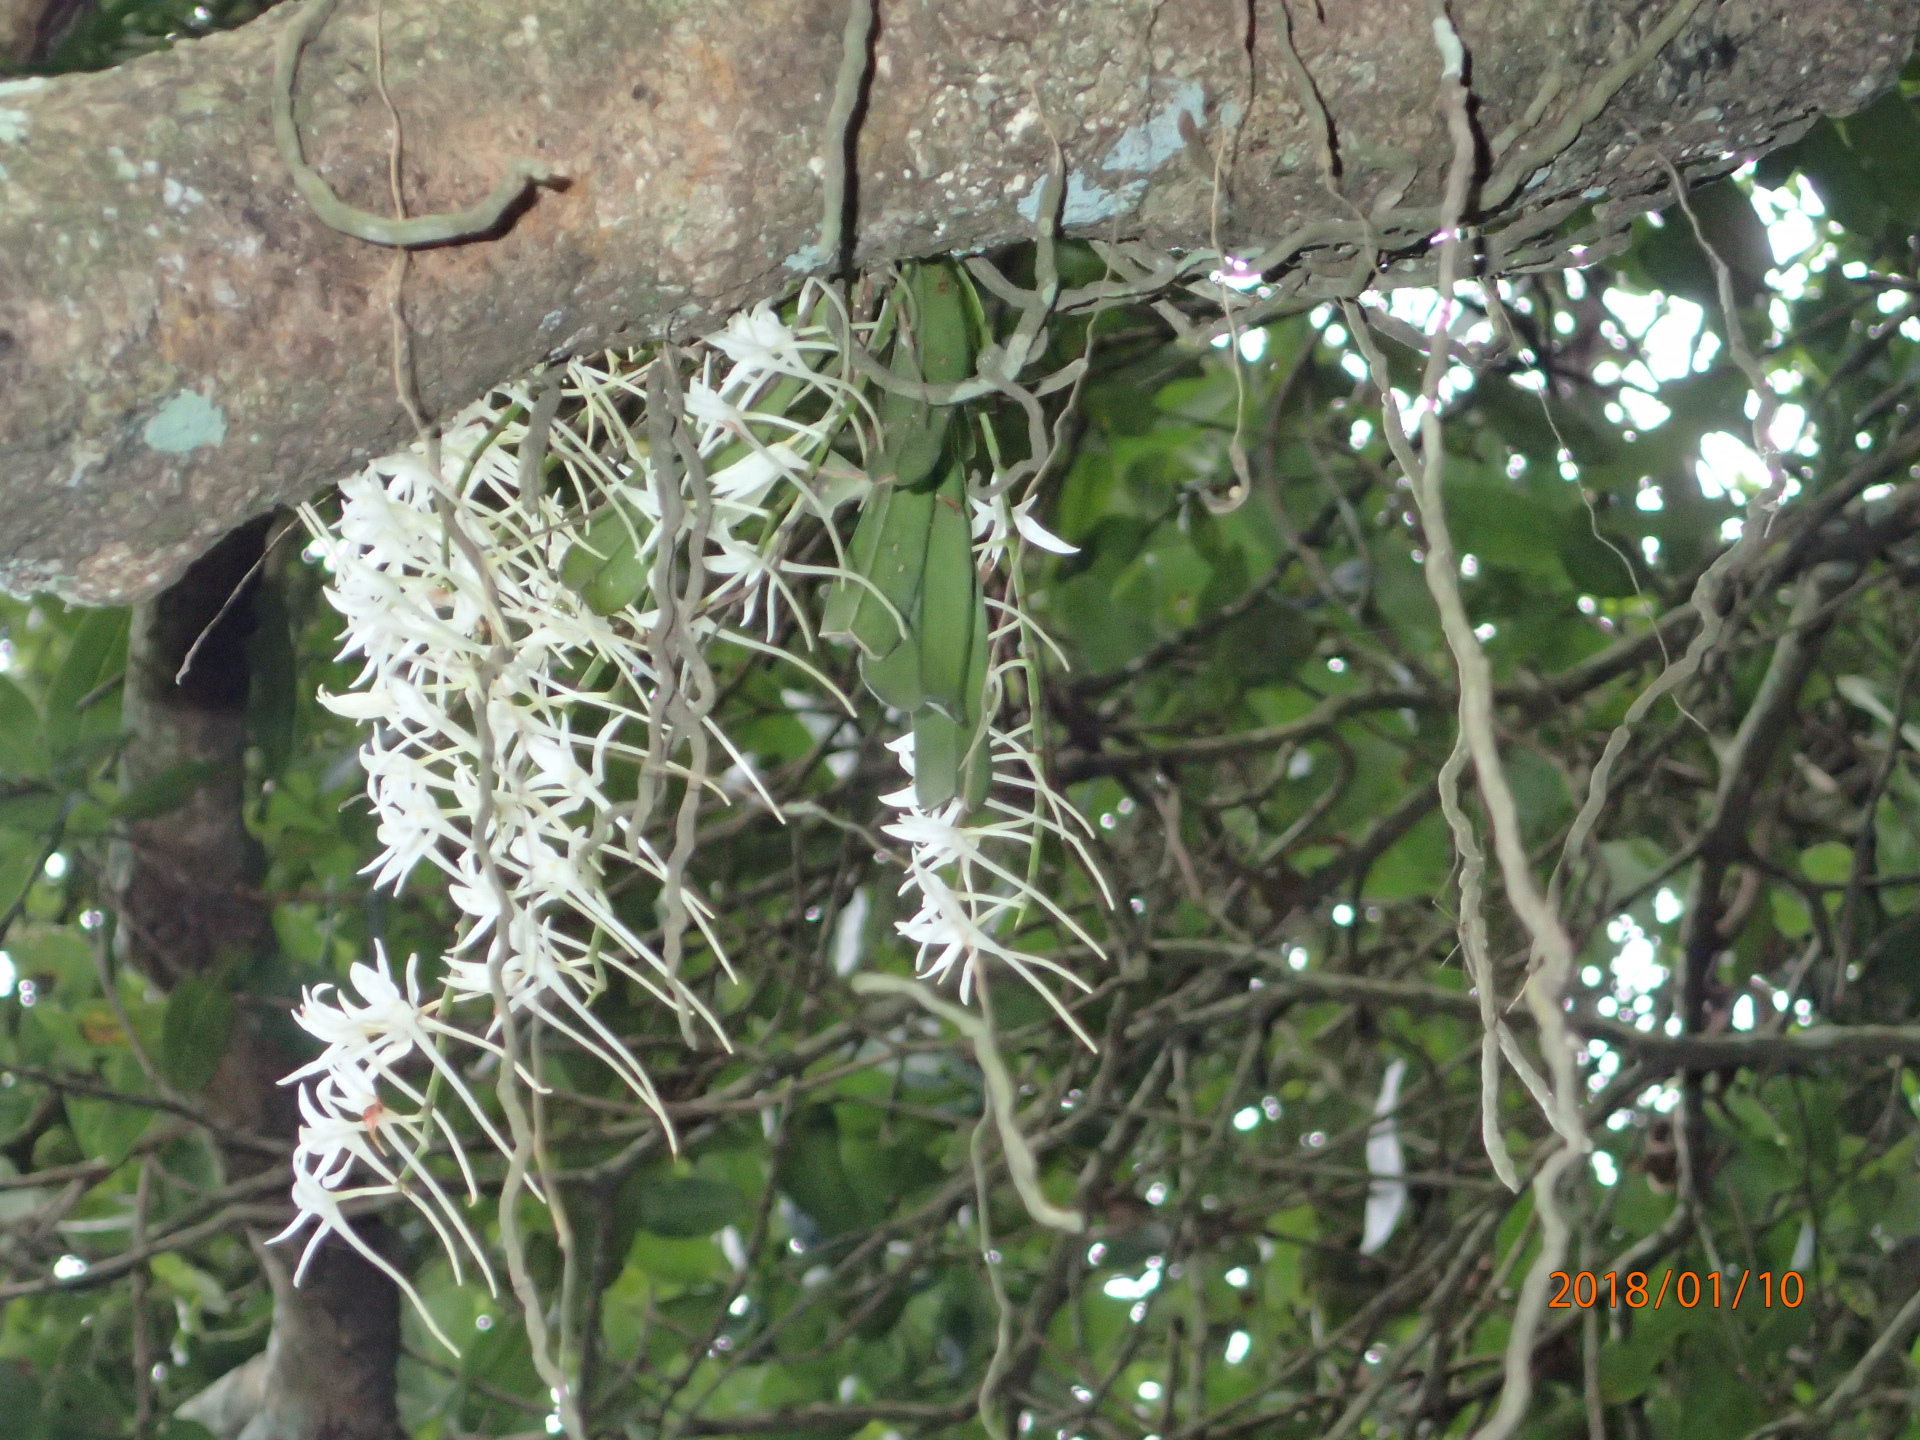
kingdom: Plantae
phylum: Tracheophyta
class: Liliopsida
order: Asparagales
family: Orchidaceae
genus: Mystacidium
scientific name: Mystacidium capense
